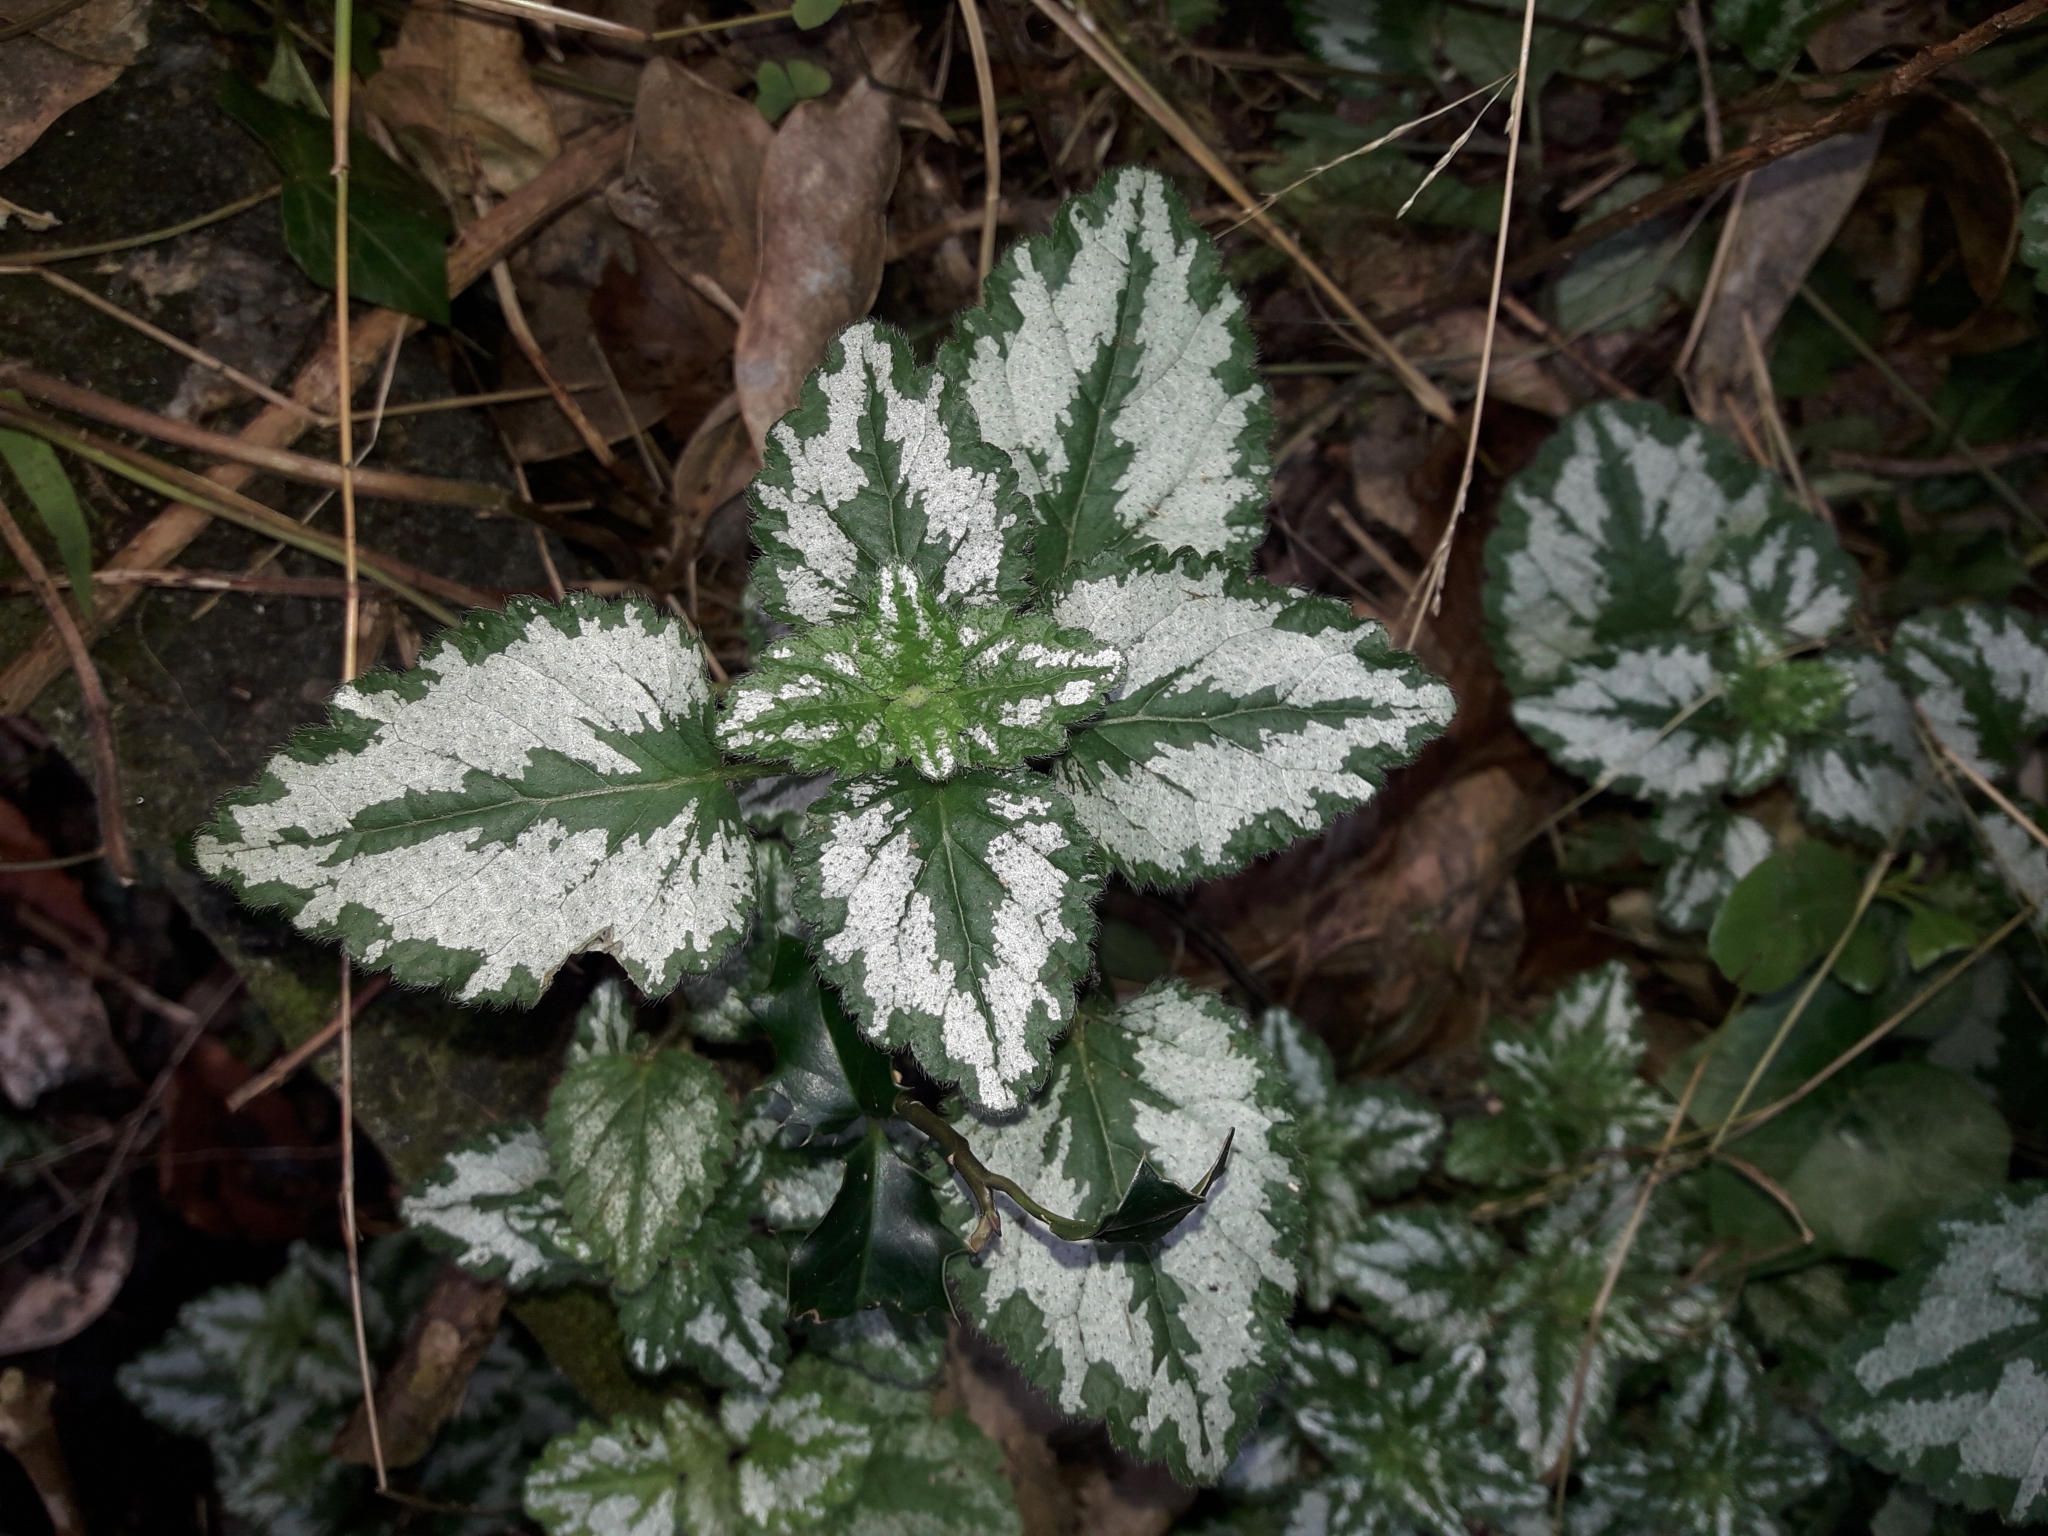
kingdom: Plantae
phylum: Tracheophyta
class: Magnoliopsida
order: Lamiales
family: Lamiaceae
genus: Lamium
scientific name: Lamium galeobdolon
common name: Yellow archangel
